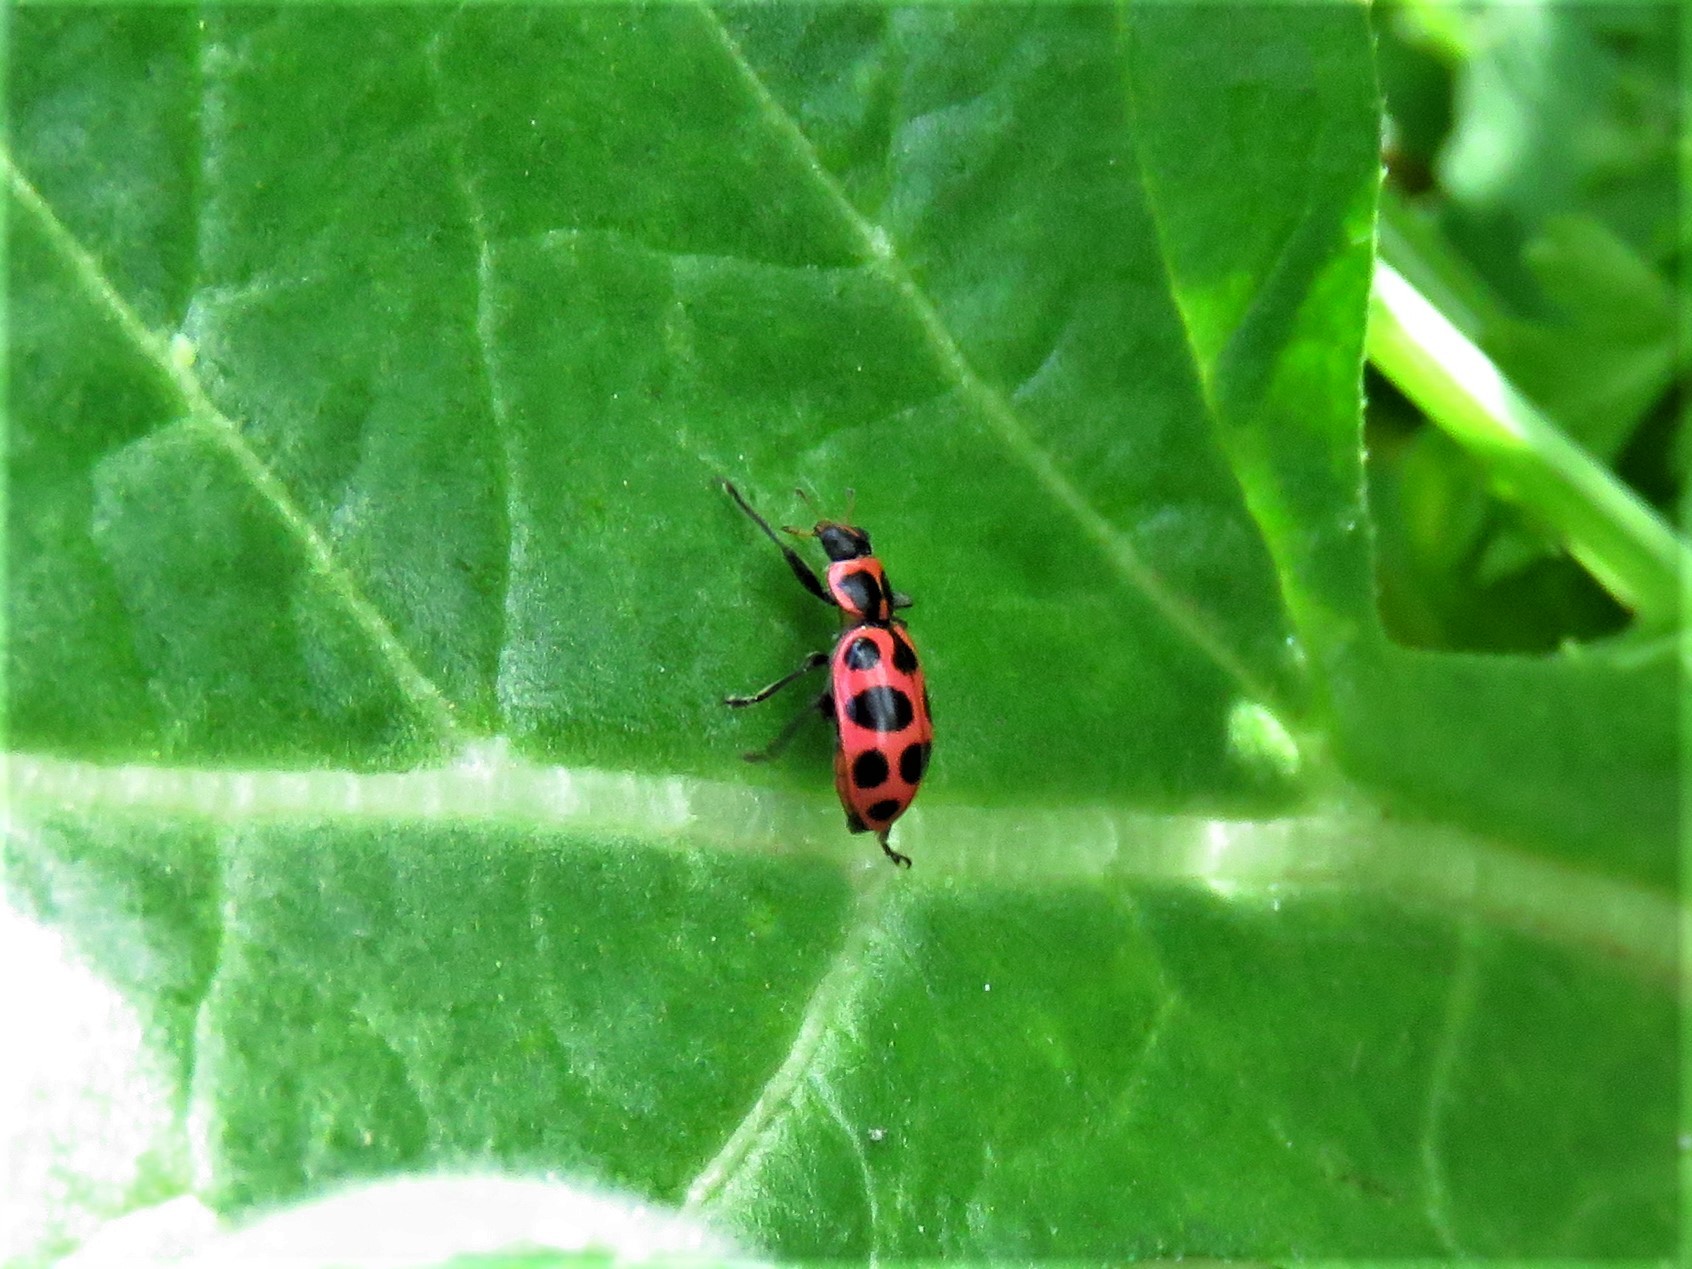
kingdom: Animalia
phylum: Arthropoda
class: Insecta
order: Coleoptera
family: Coccinellidae
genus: Coleomegilla
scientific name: Coleomegilla maculata
